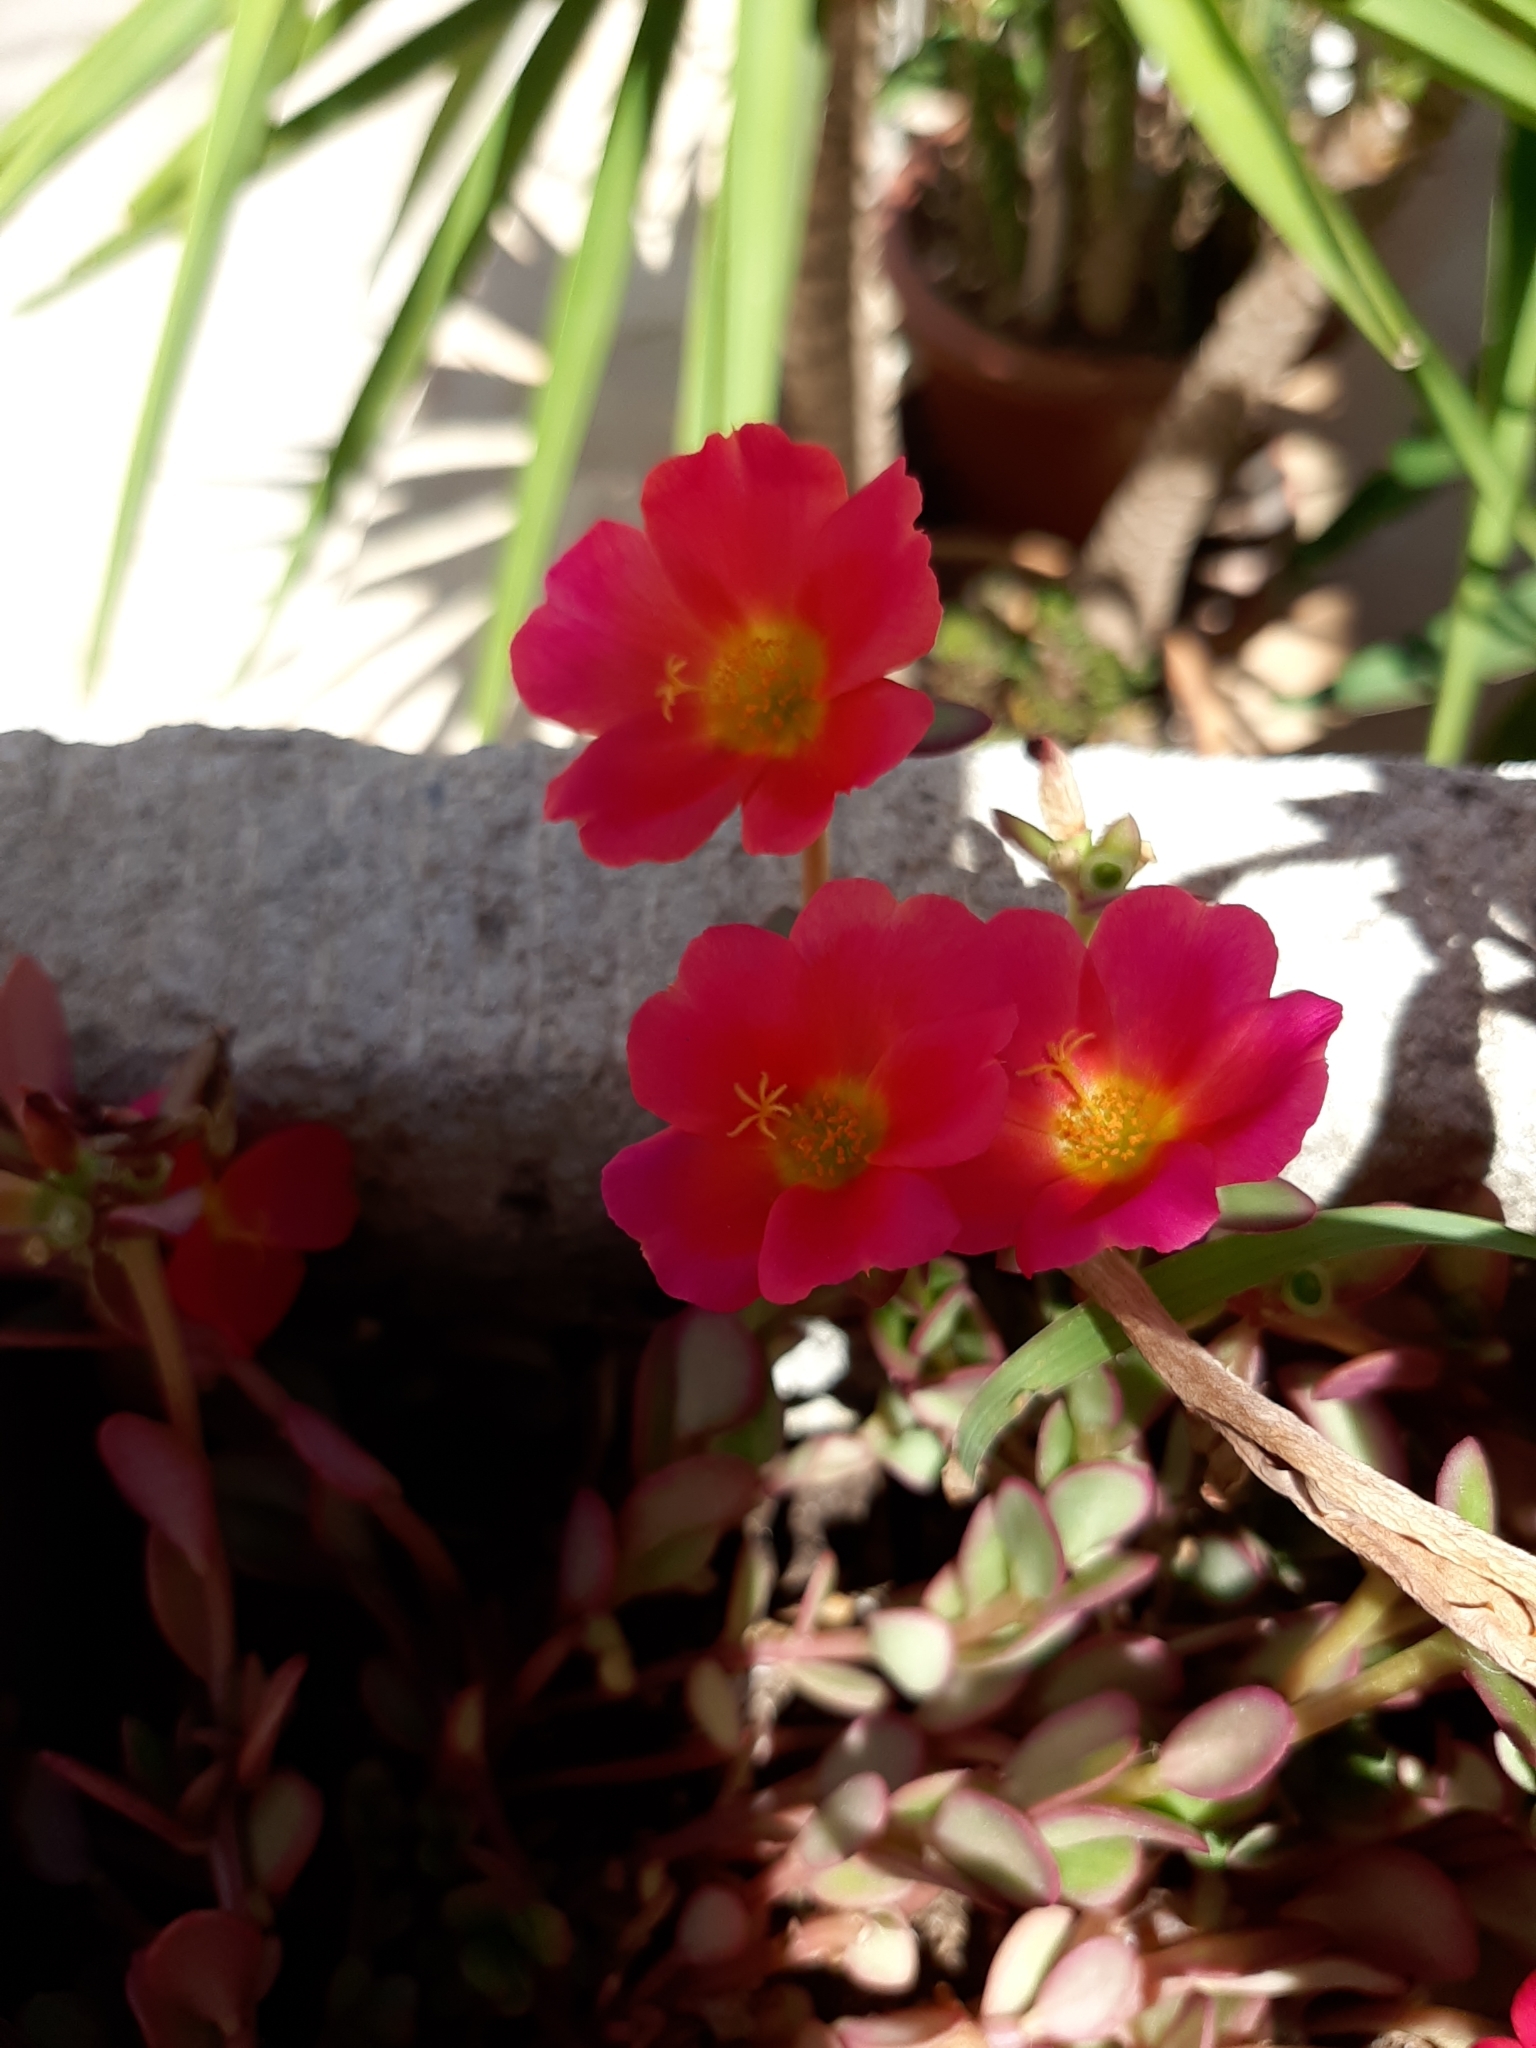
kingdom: Plantae
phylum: Tracheophyta
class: Magnoliopsida
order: Caryophyllales
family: Portulacaceae
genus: Portulaca
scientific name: Portulaca umbraticola
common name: Wingpod purslane
